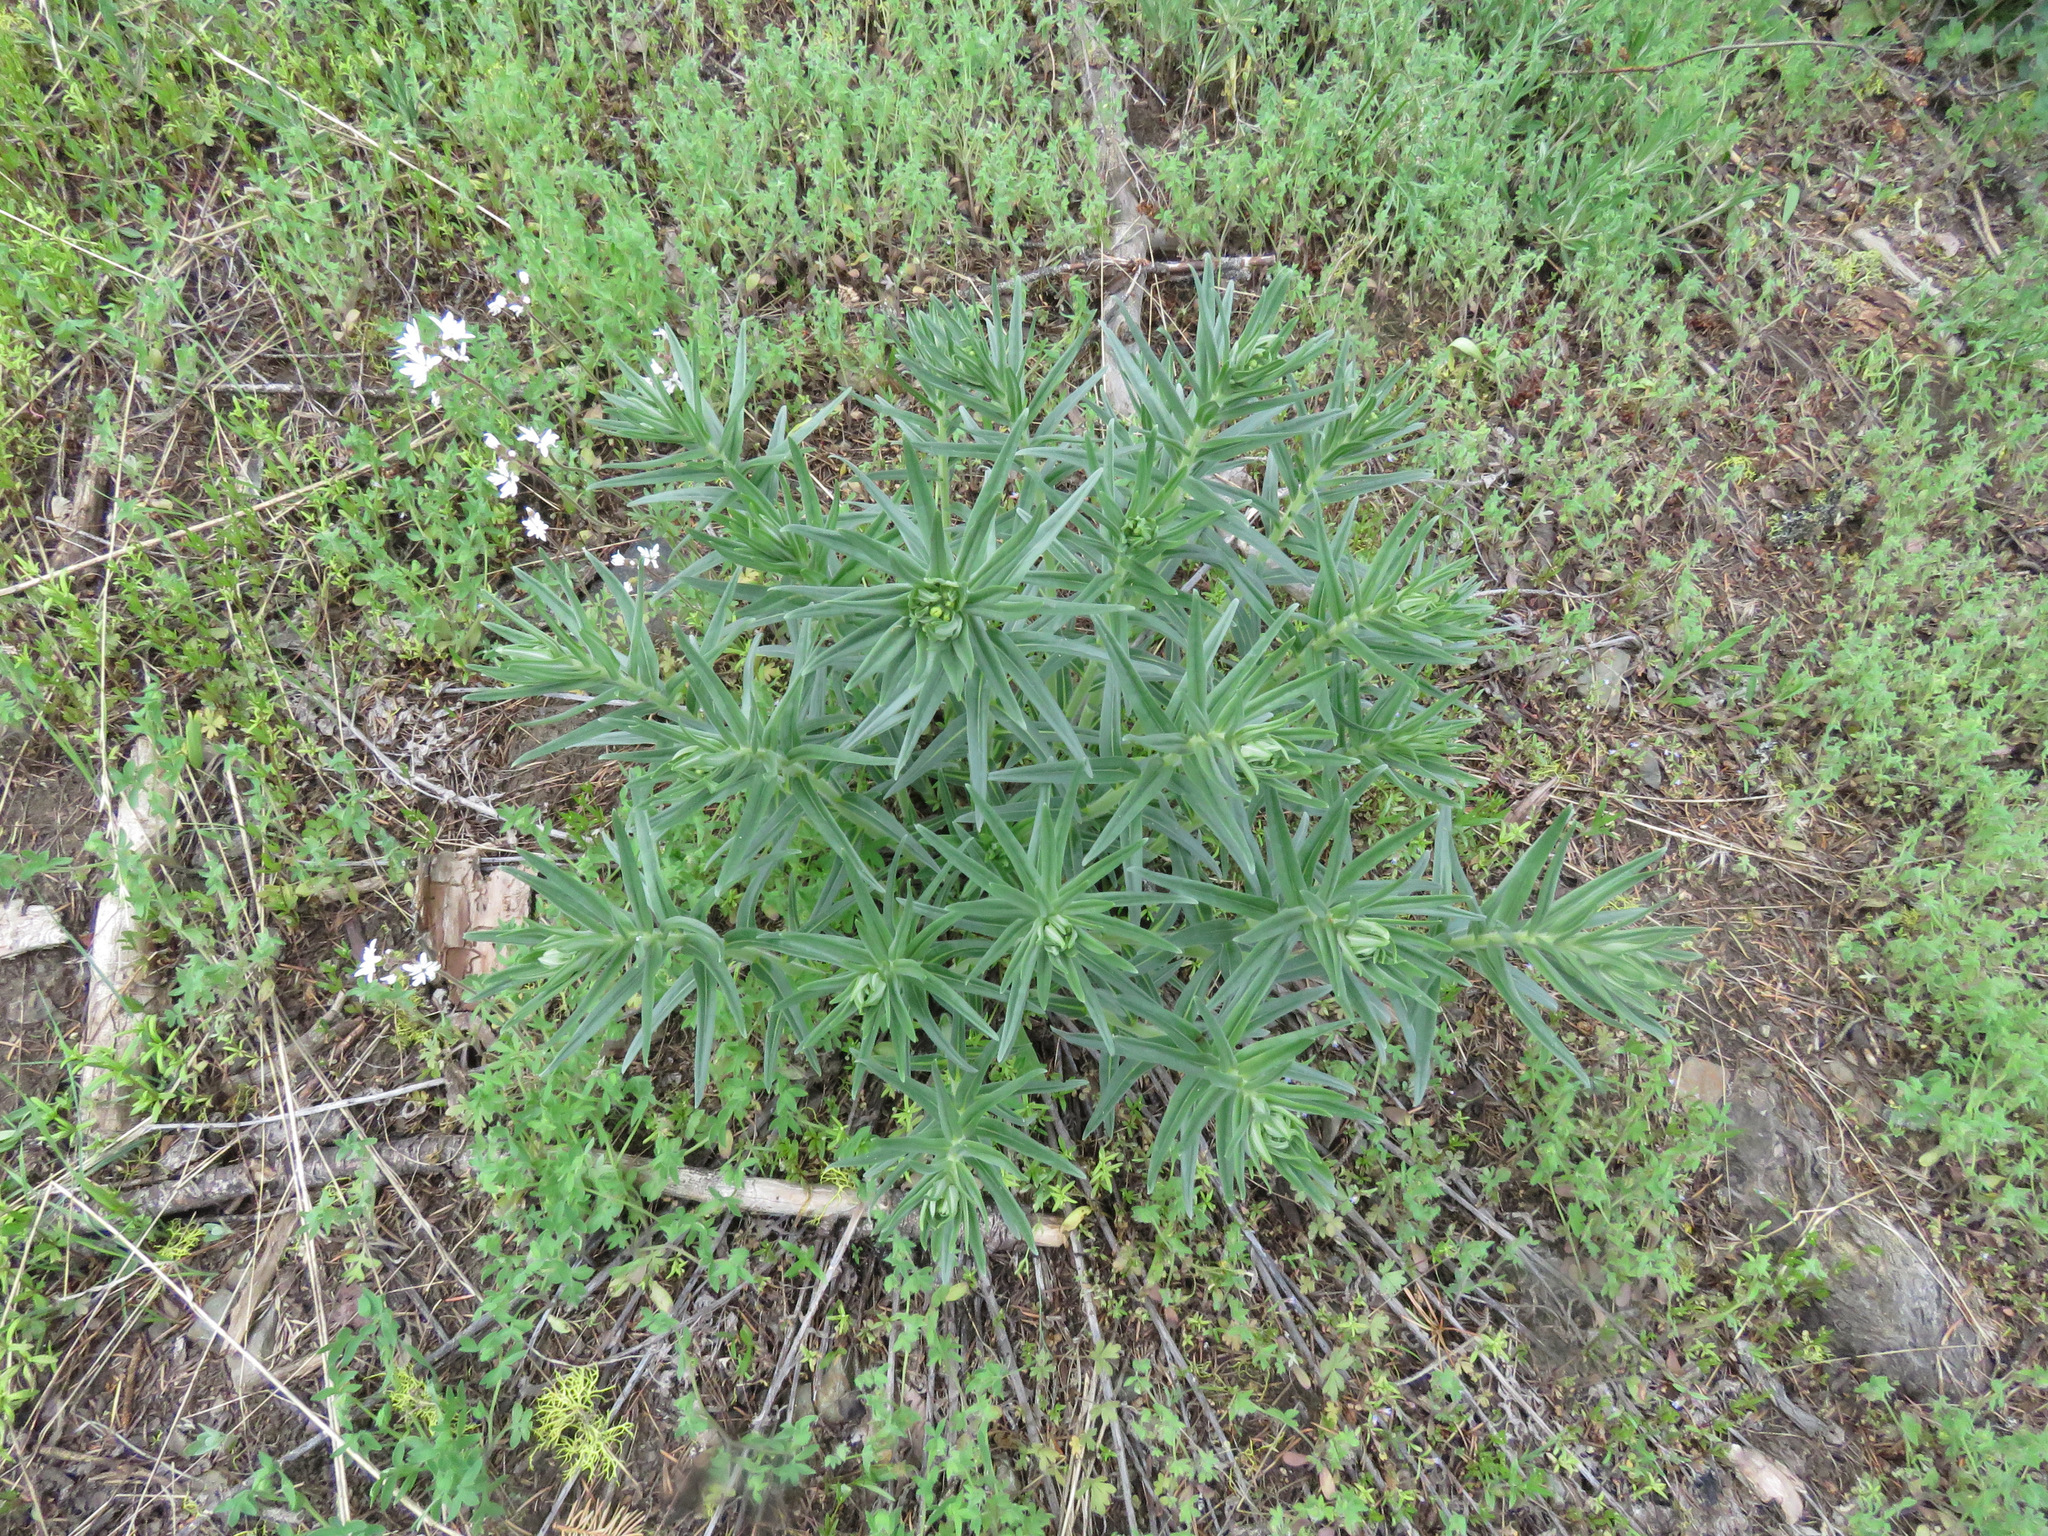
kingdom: Plantae
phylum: Tracheophyta
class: Magnoliopsida
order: Boraginales
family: Boraginaceae
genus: Lithospermum
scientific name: Lithospermum ruderale
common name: Western gromwell
